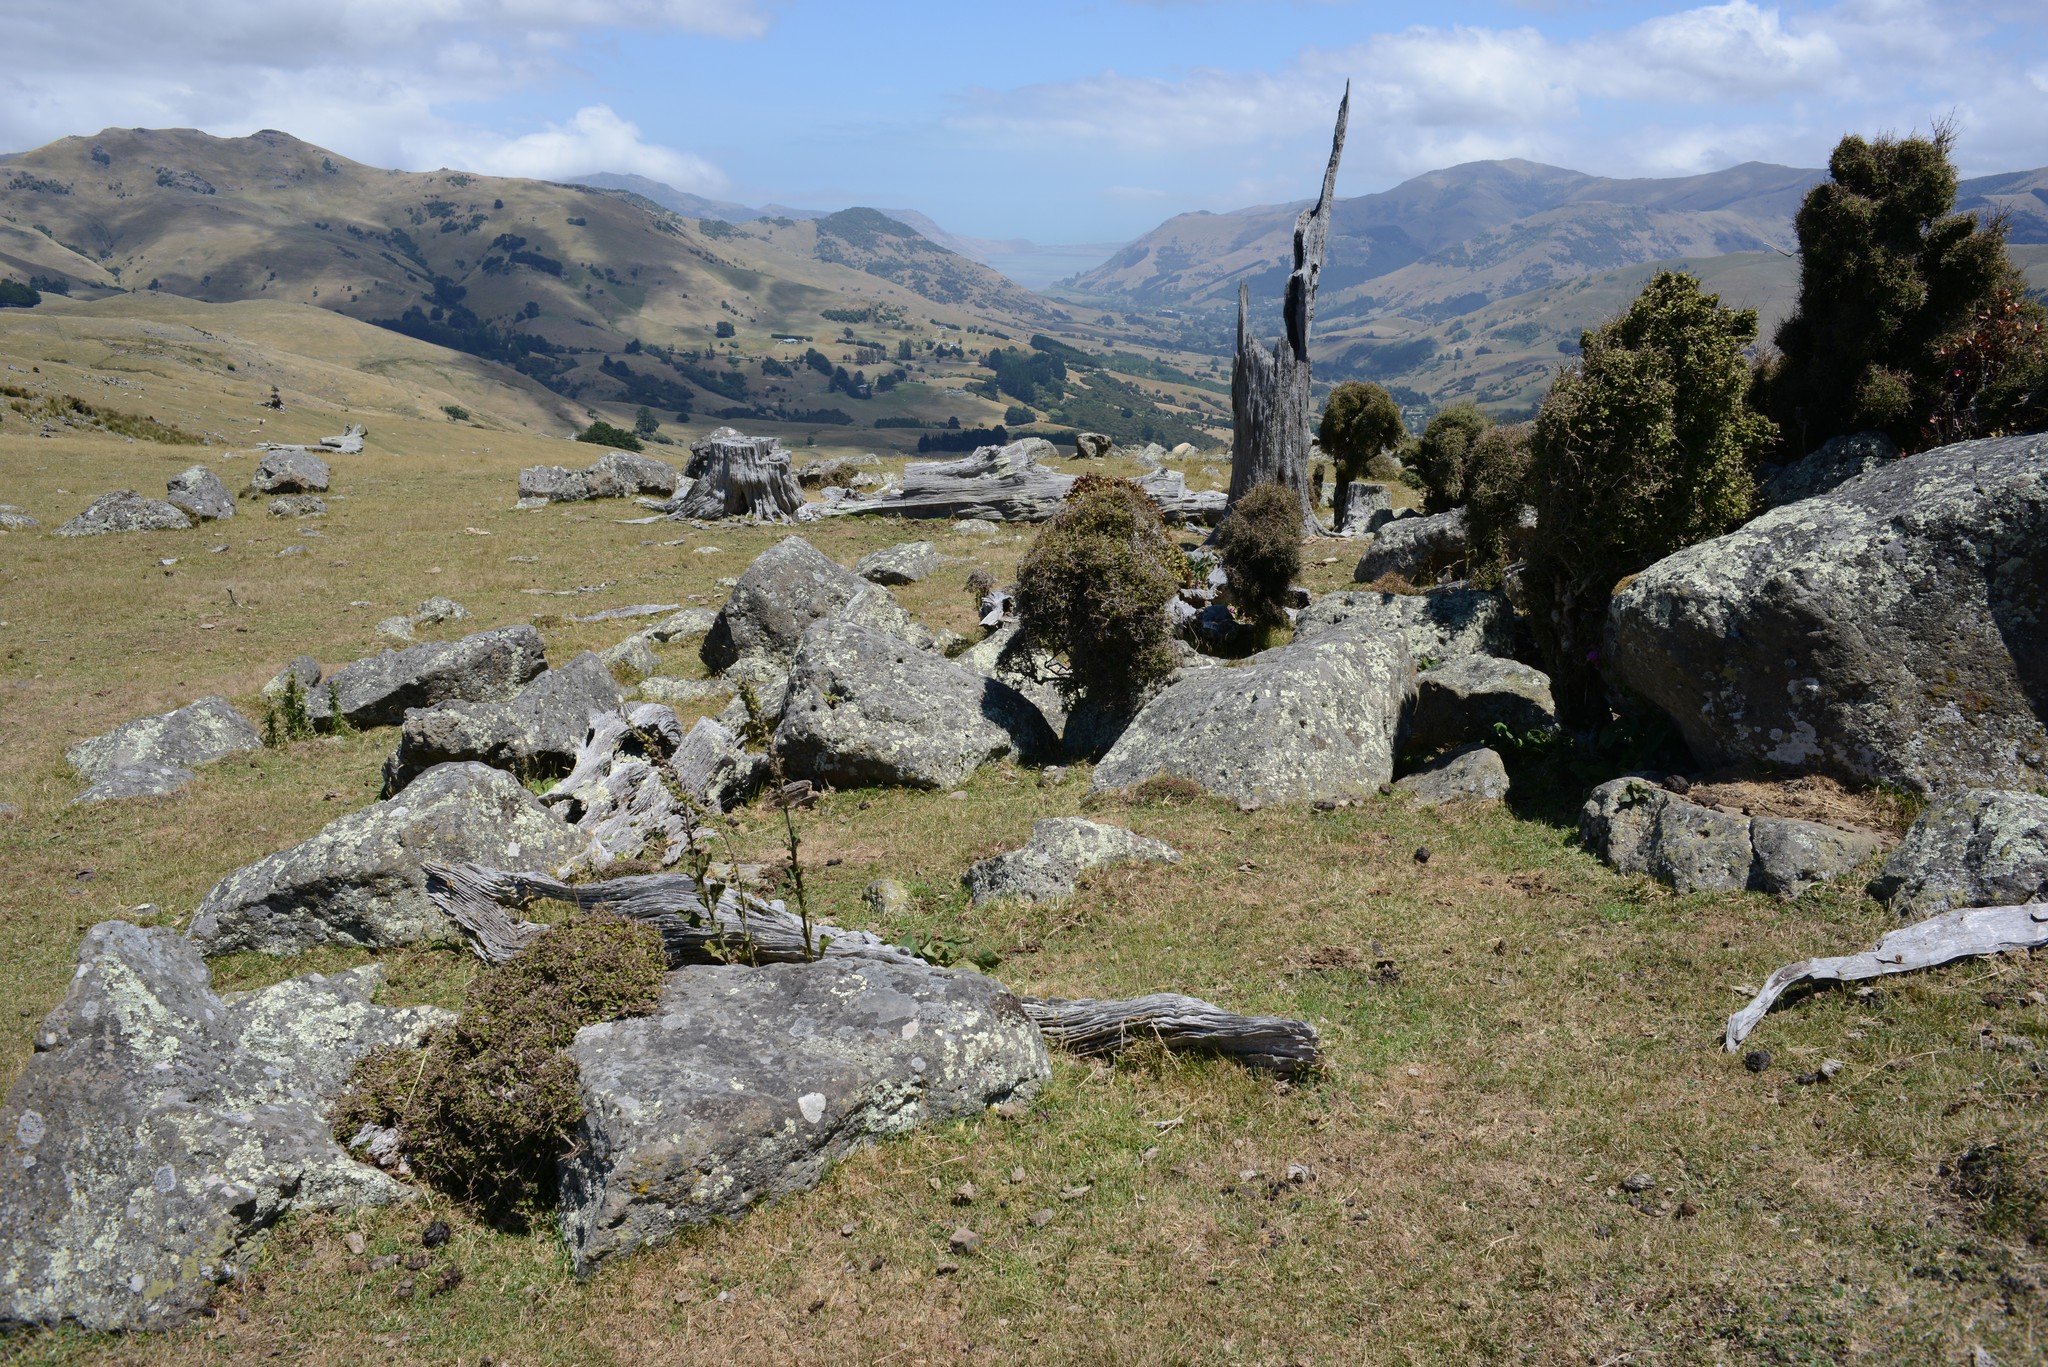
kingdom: Plantae
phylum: Tracheophyta
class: Magnoliopsida
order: Lamiales
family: Plantaginaceae
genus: Digitalis
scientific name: Digitalis purpurea
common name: Foxglove
